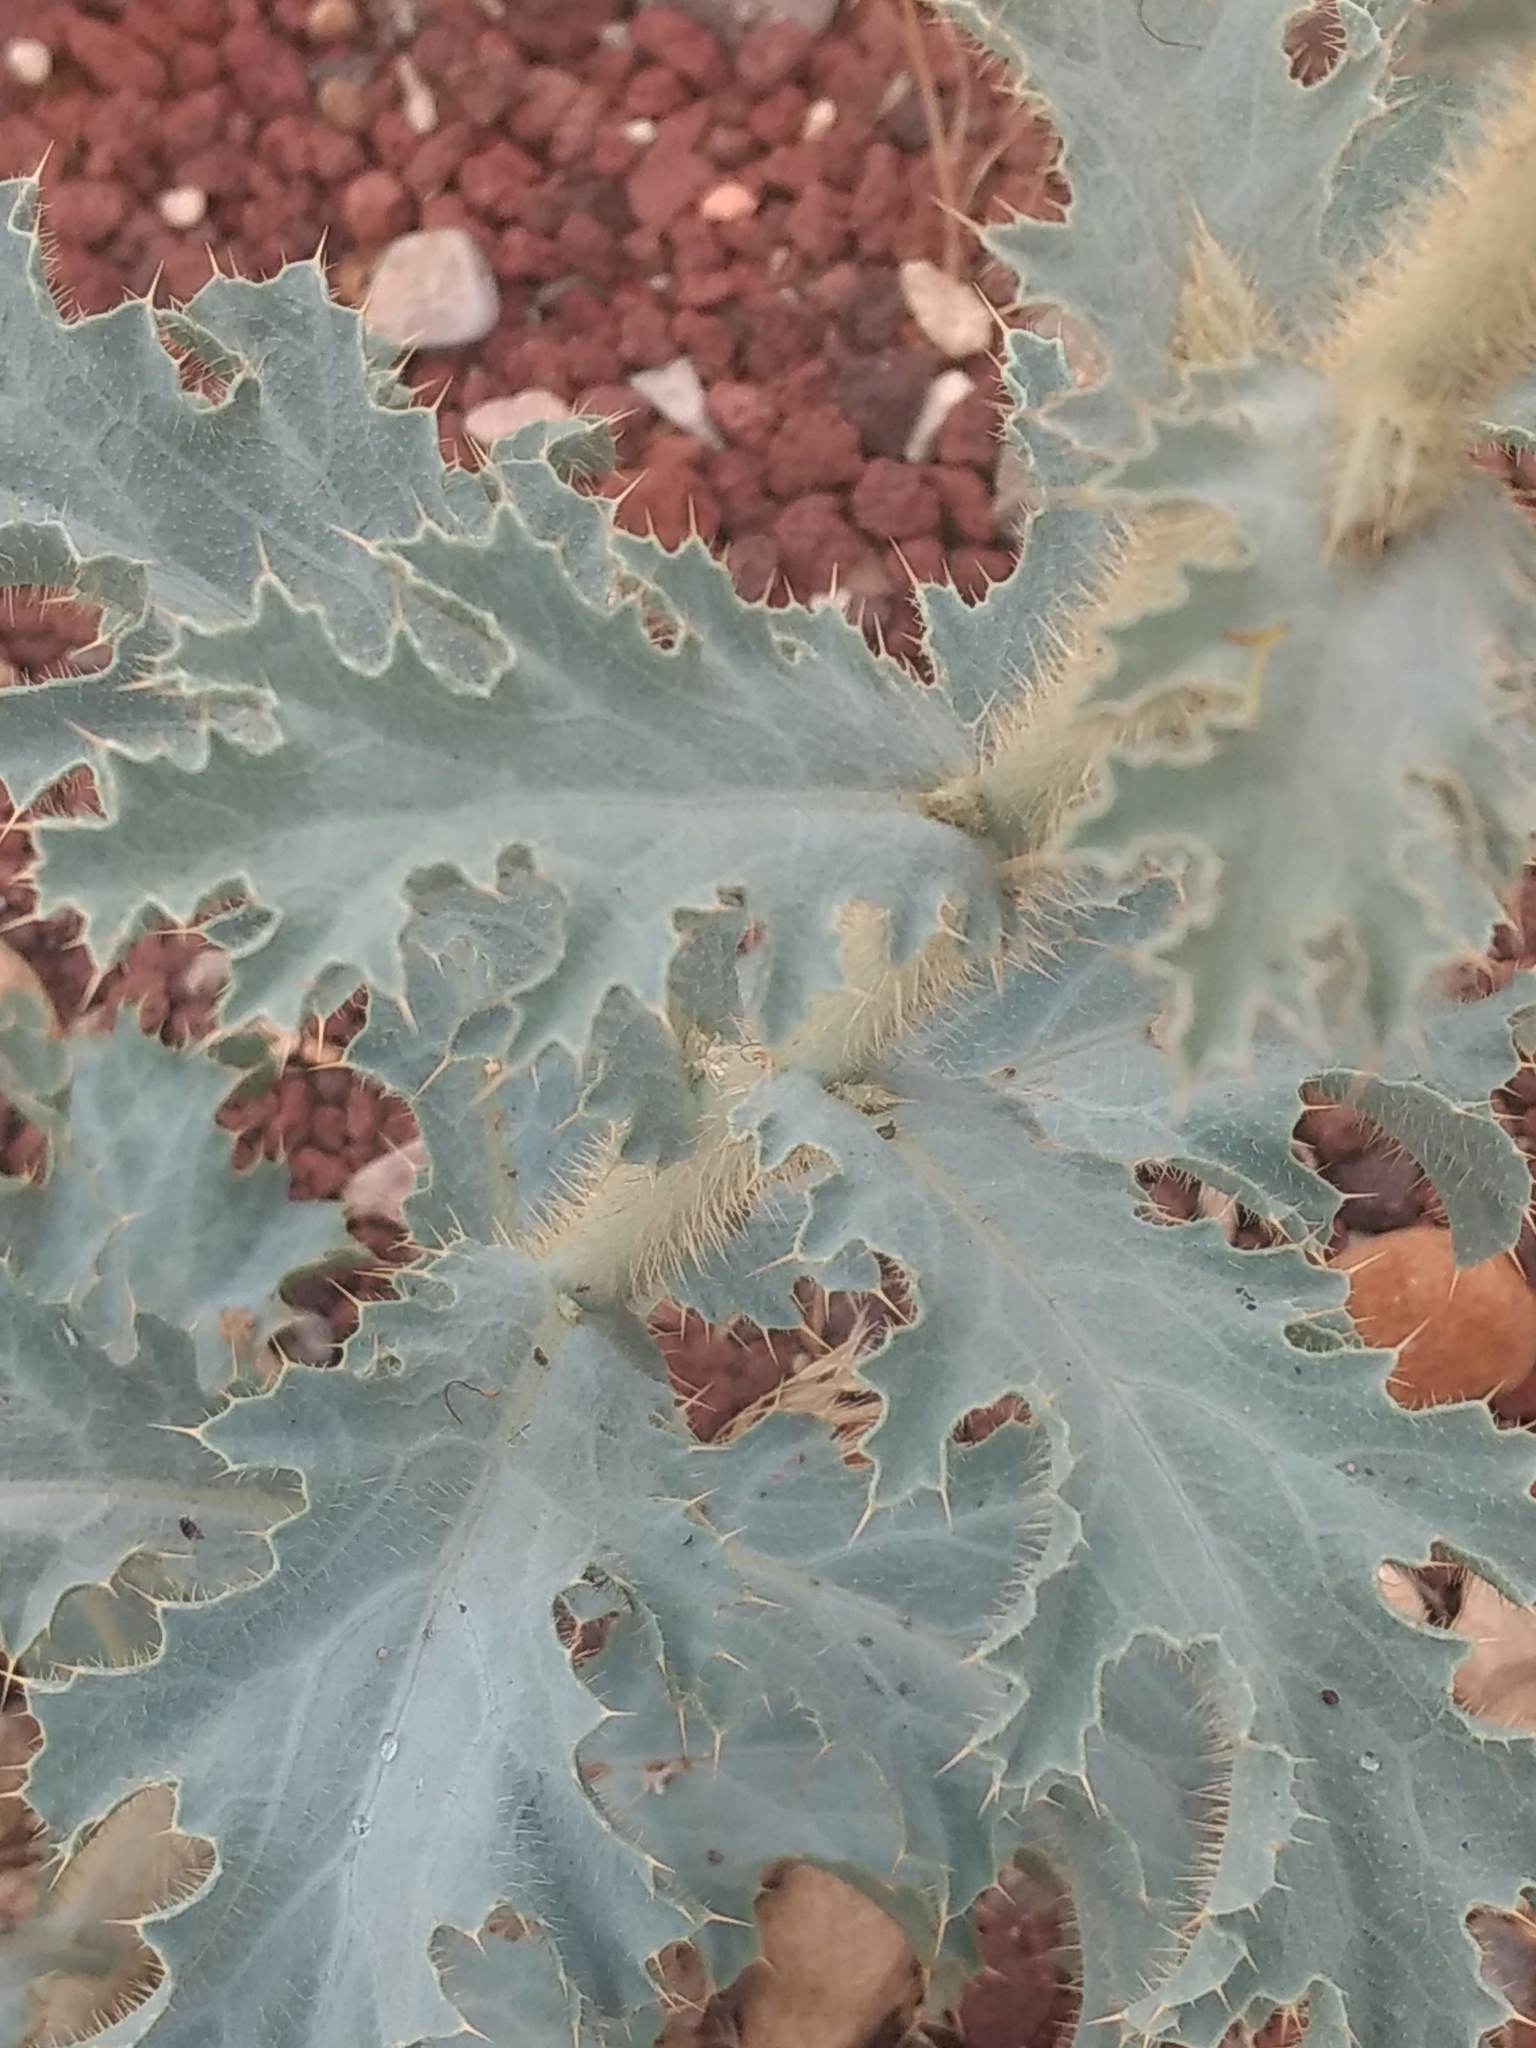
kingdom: Plantae
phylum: Tracheophyta
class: Magnoliopsida
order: Ranunculales
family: Papaveraceae
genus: Argemone
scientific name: Argemone munita
